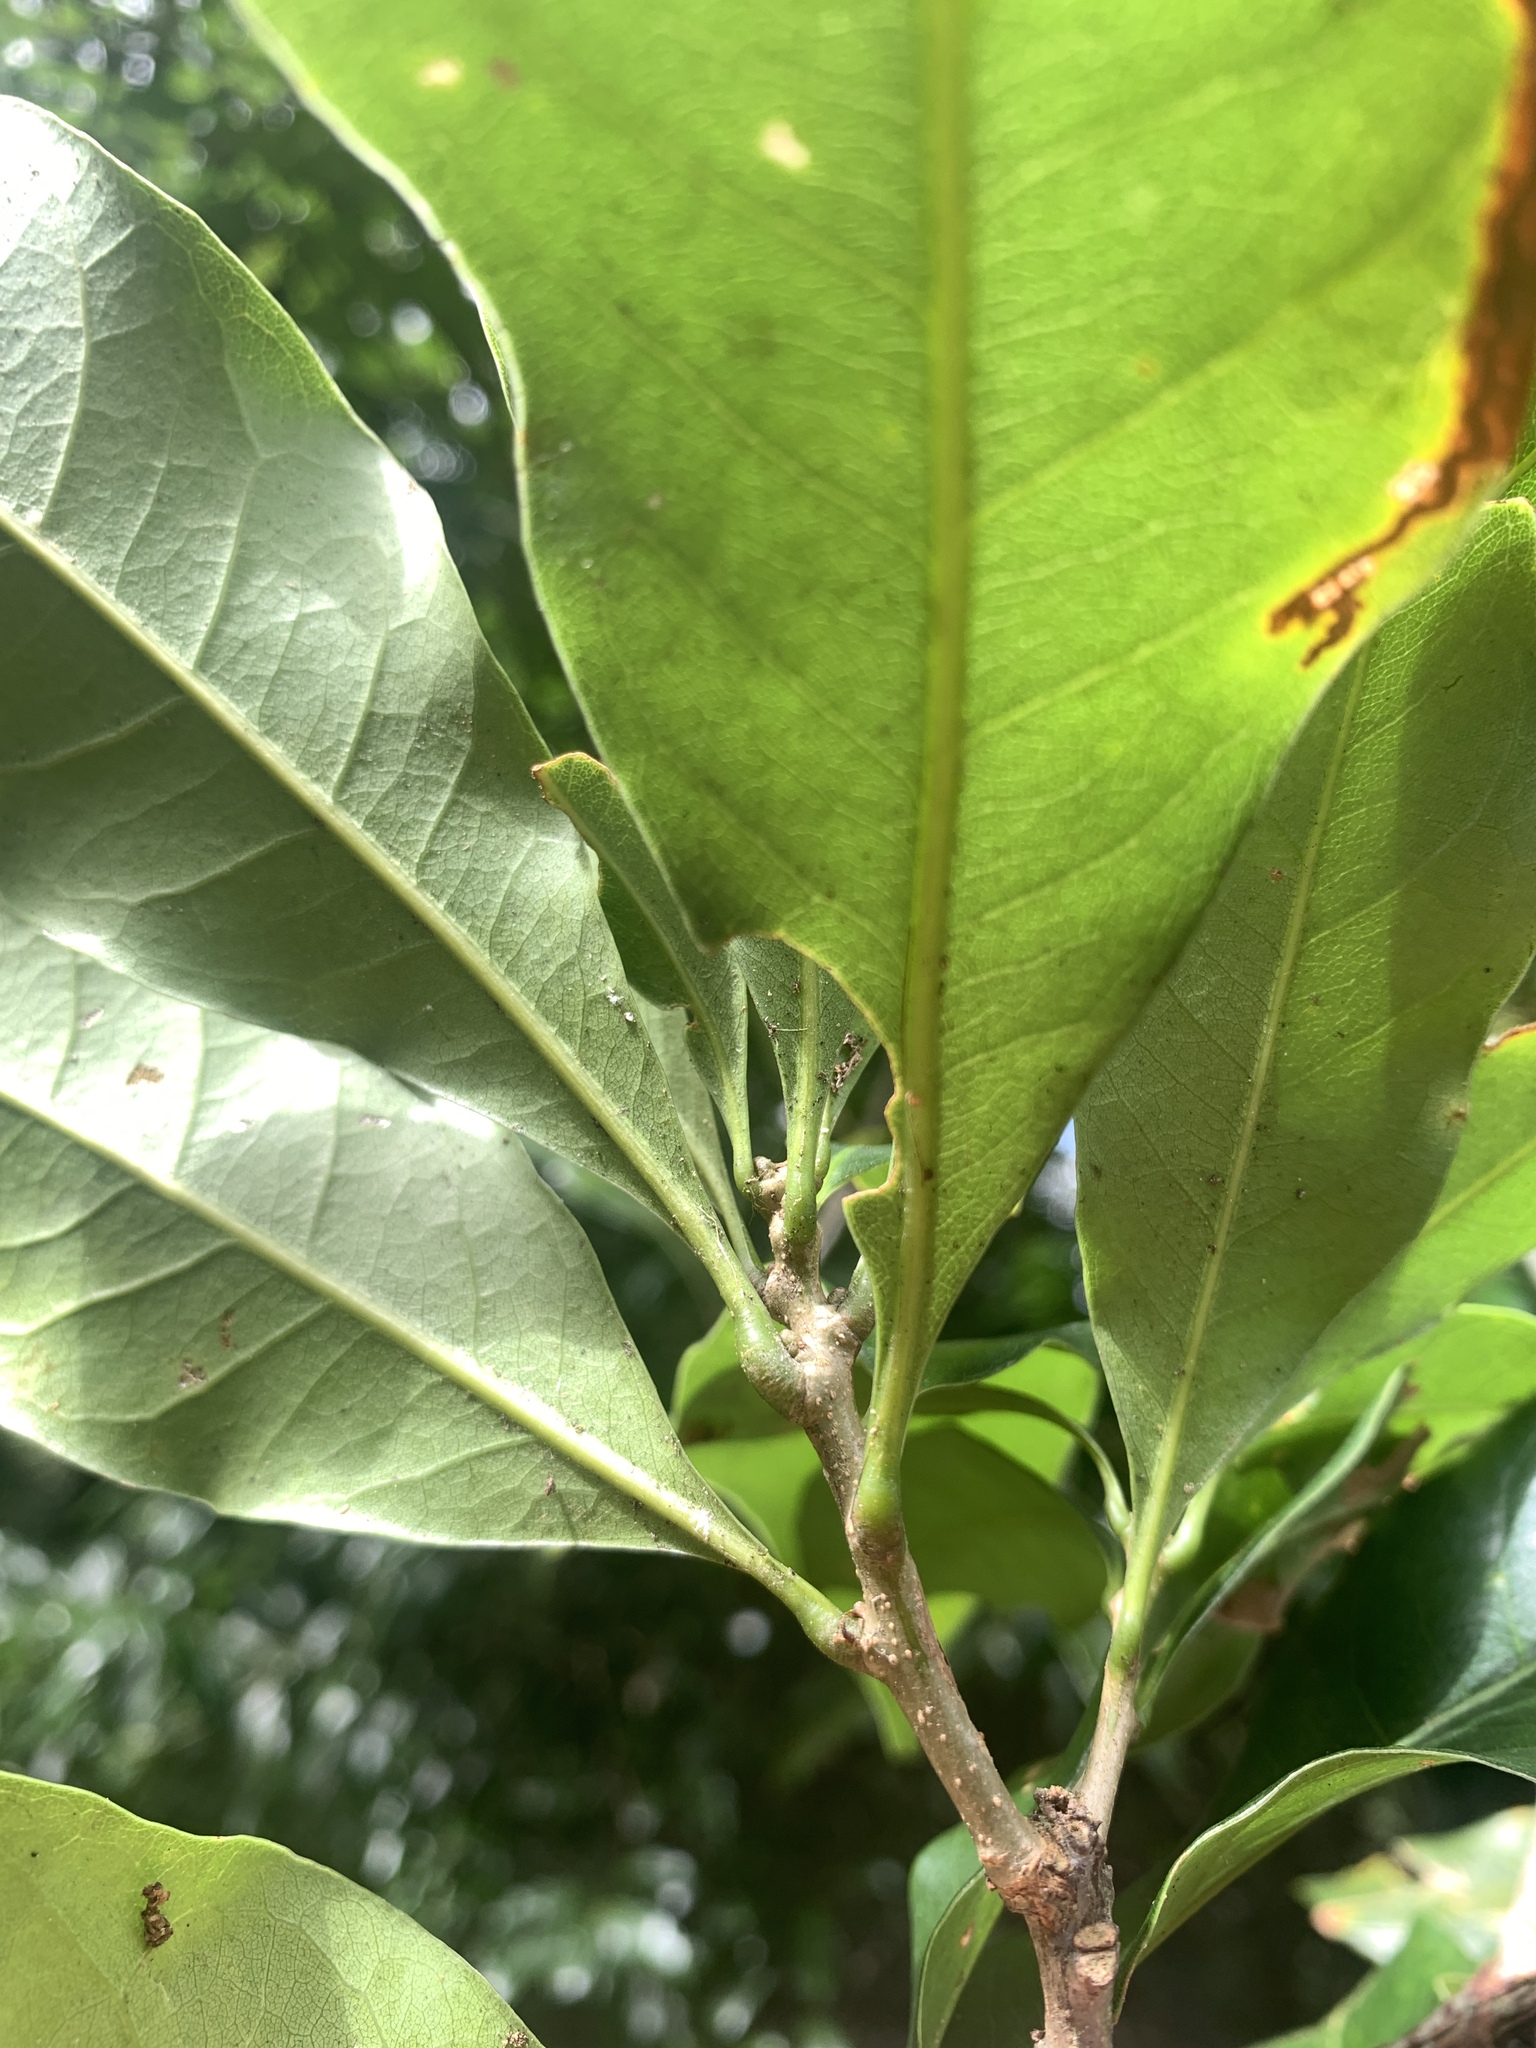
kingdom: Plantae
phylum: Tracheophyta
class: Magnoliopsida
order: Fagales
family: Fagaceae
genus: Lithocarpus
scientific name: Lithocarpus hancei
